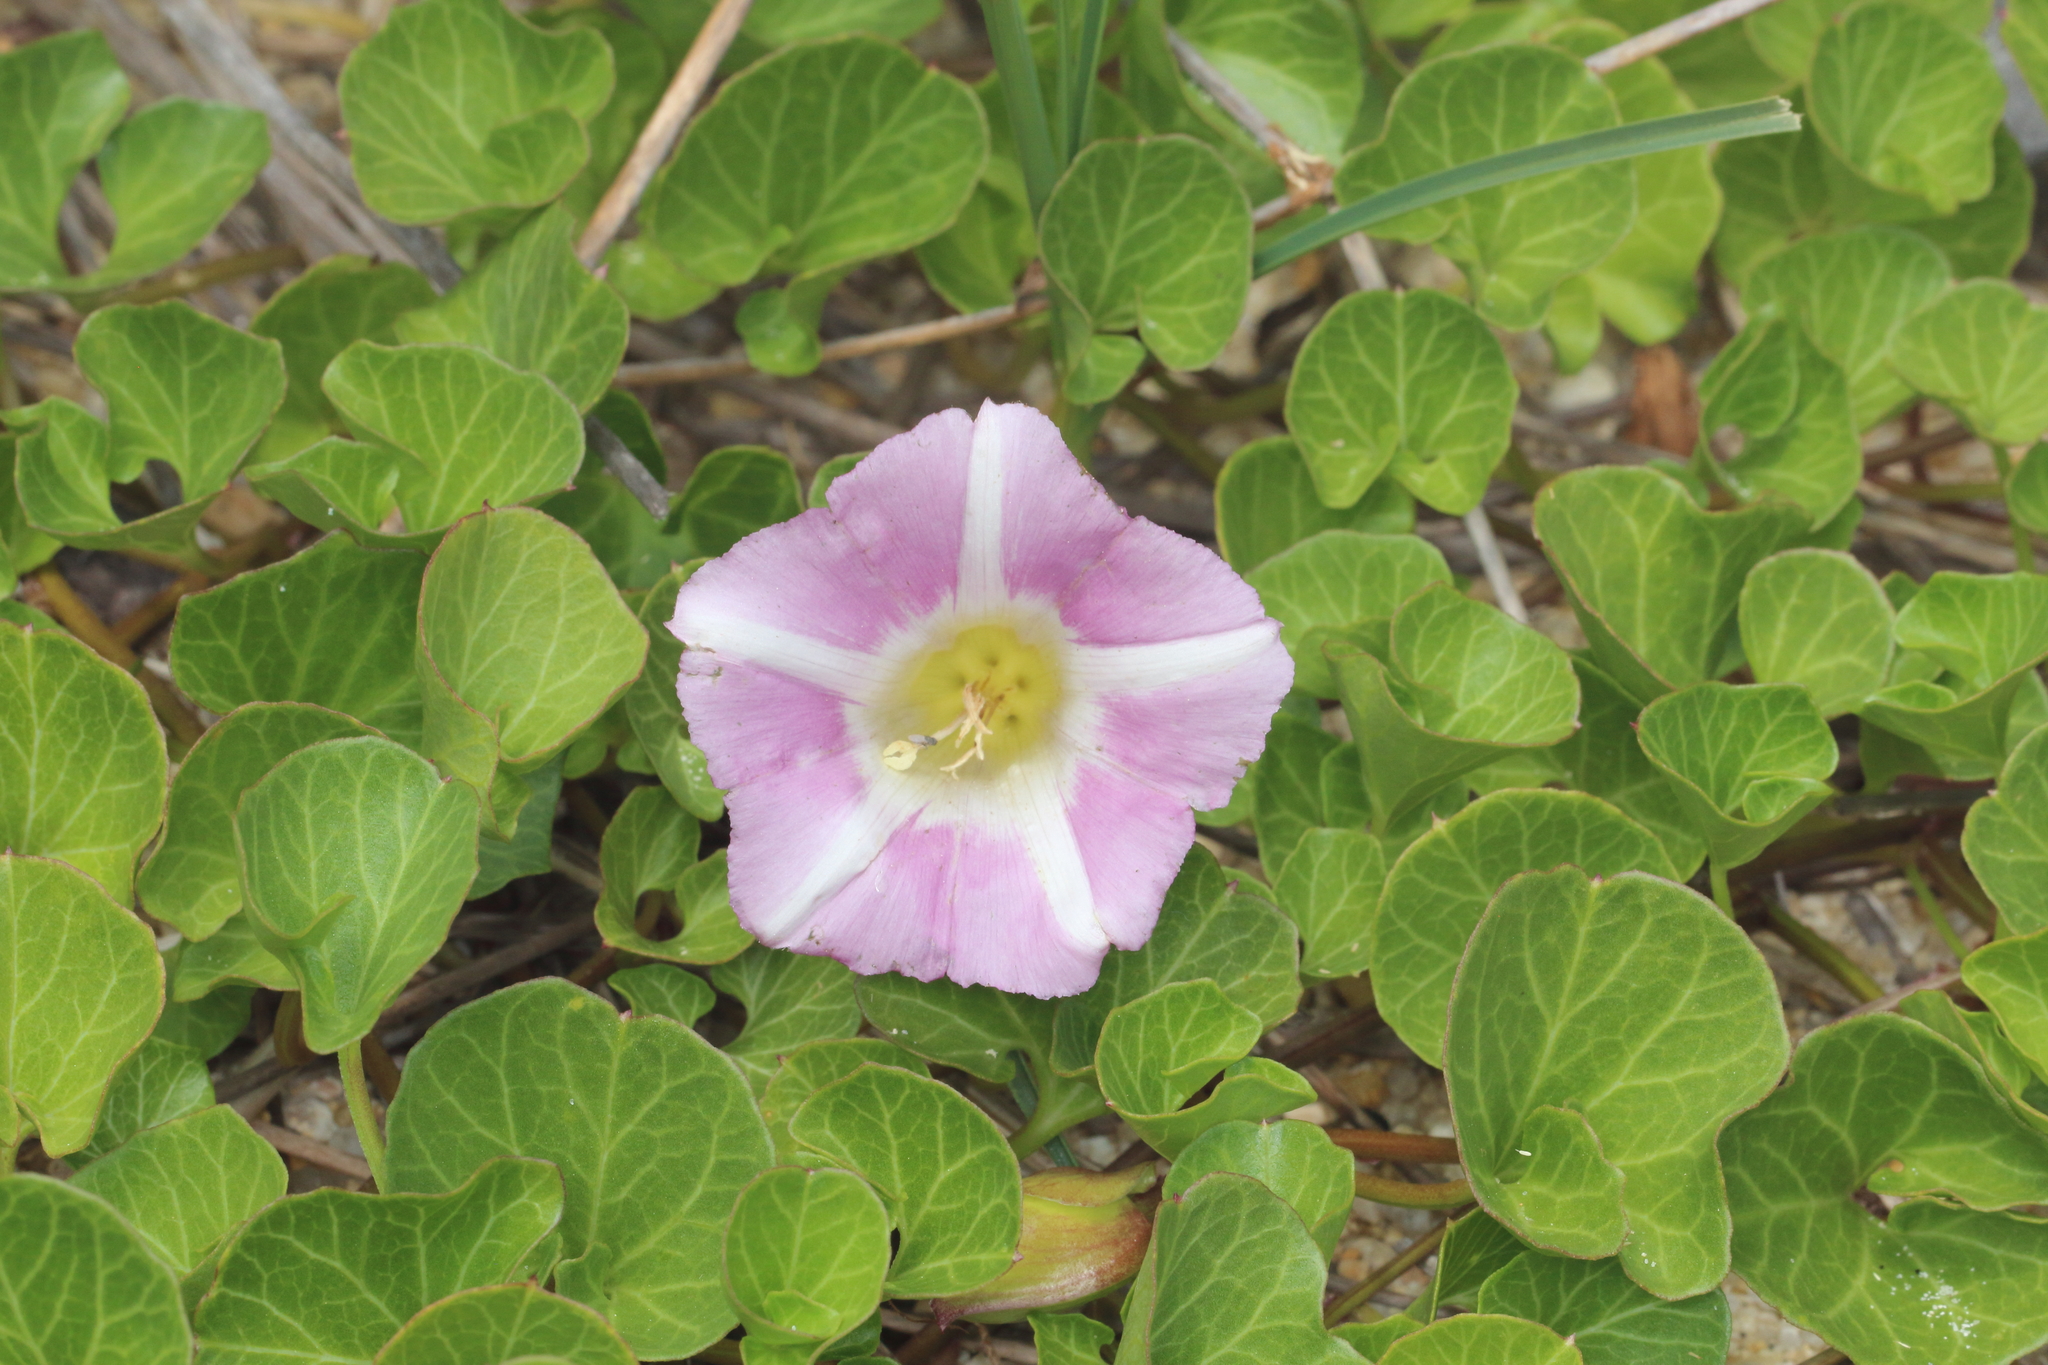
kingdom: Plantae
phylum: Tracheophyta
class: Magnoliopsida
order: Solanales
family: Convolvulaceae
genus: Calystegia
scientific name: Calystegia soldanella
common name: Sea bindweed
